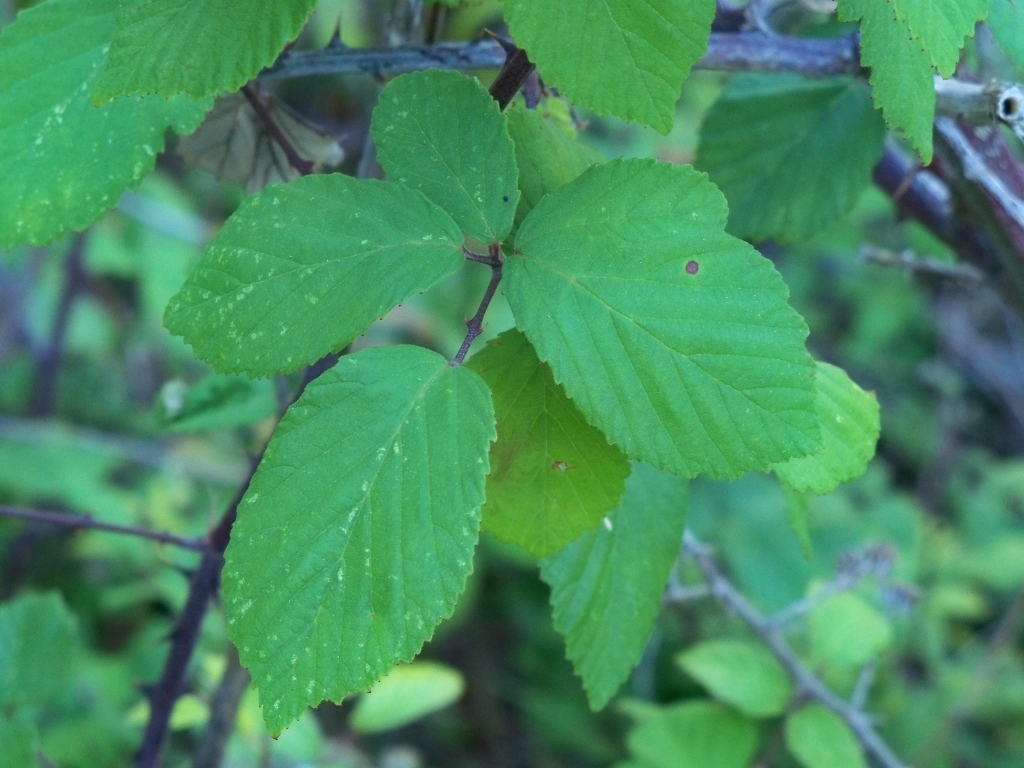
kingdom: Plantae
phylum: Tracheophyta
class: Magnoliopsida
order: Rosales
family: Rosaceae
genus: Rubus
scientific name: Rubus ulmifolius
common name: Elmleaf blackberry
